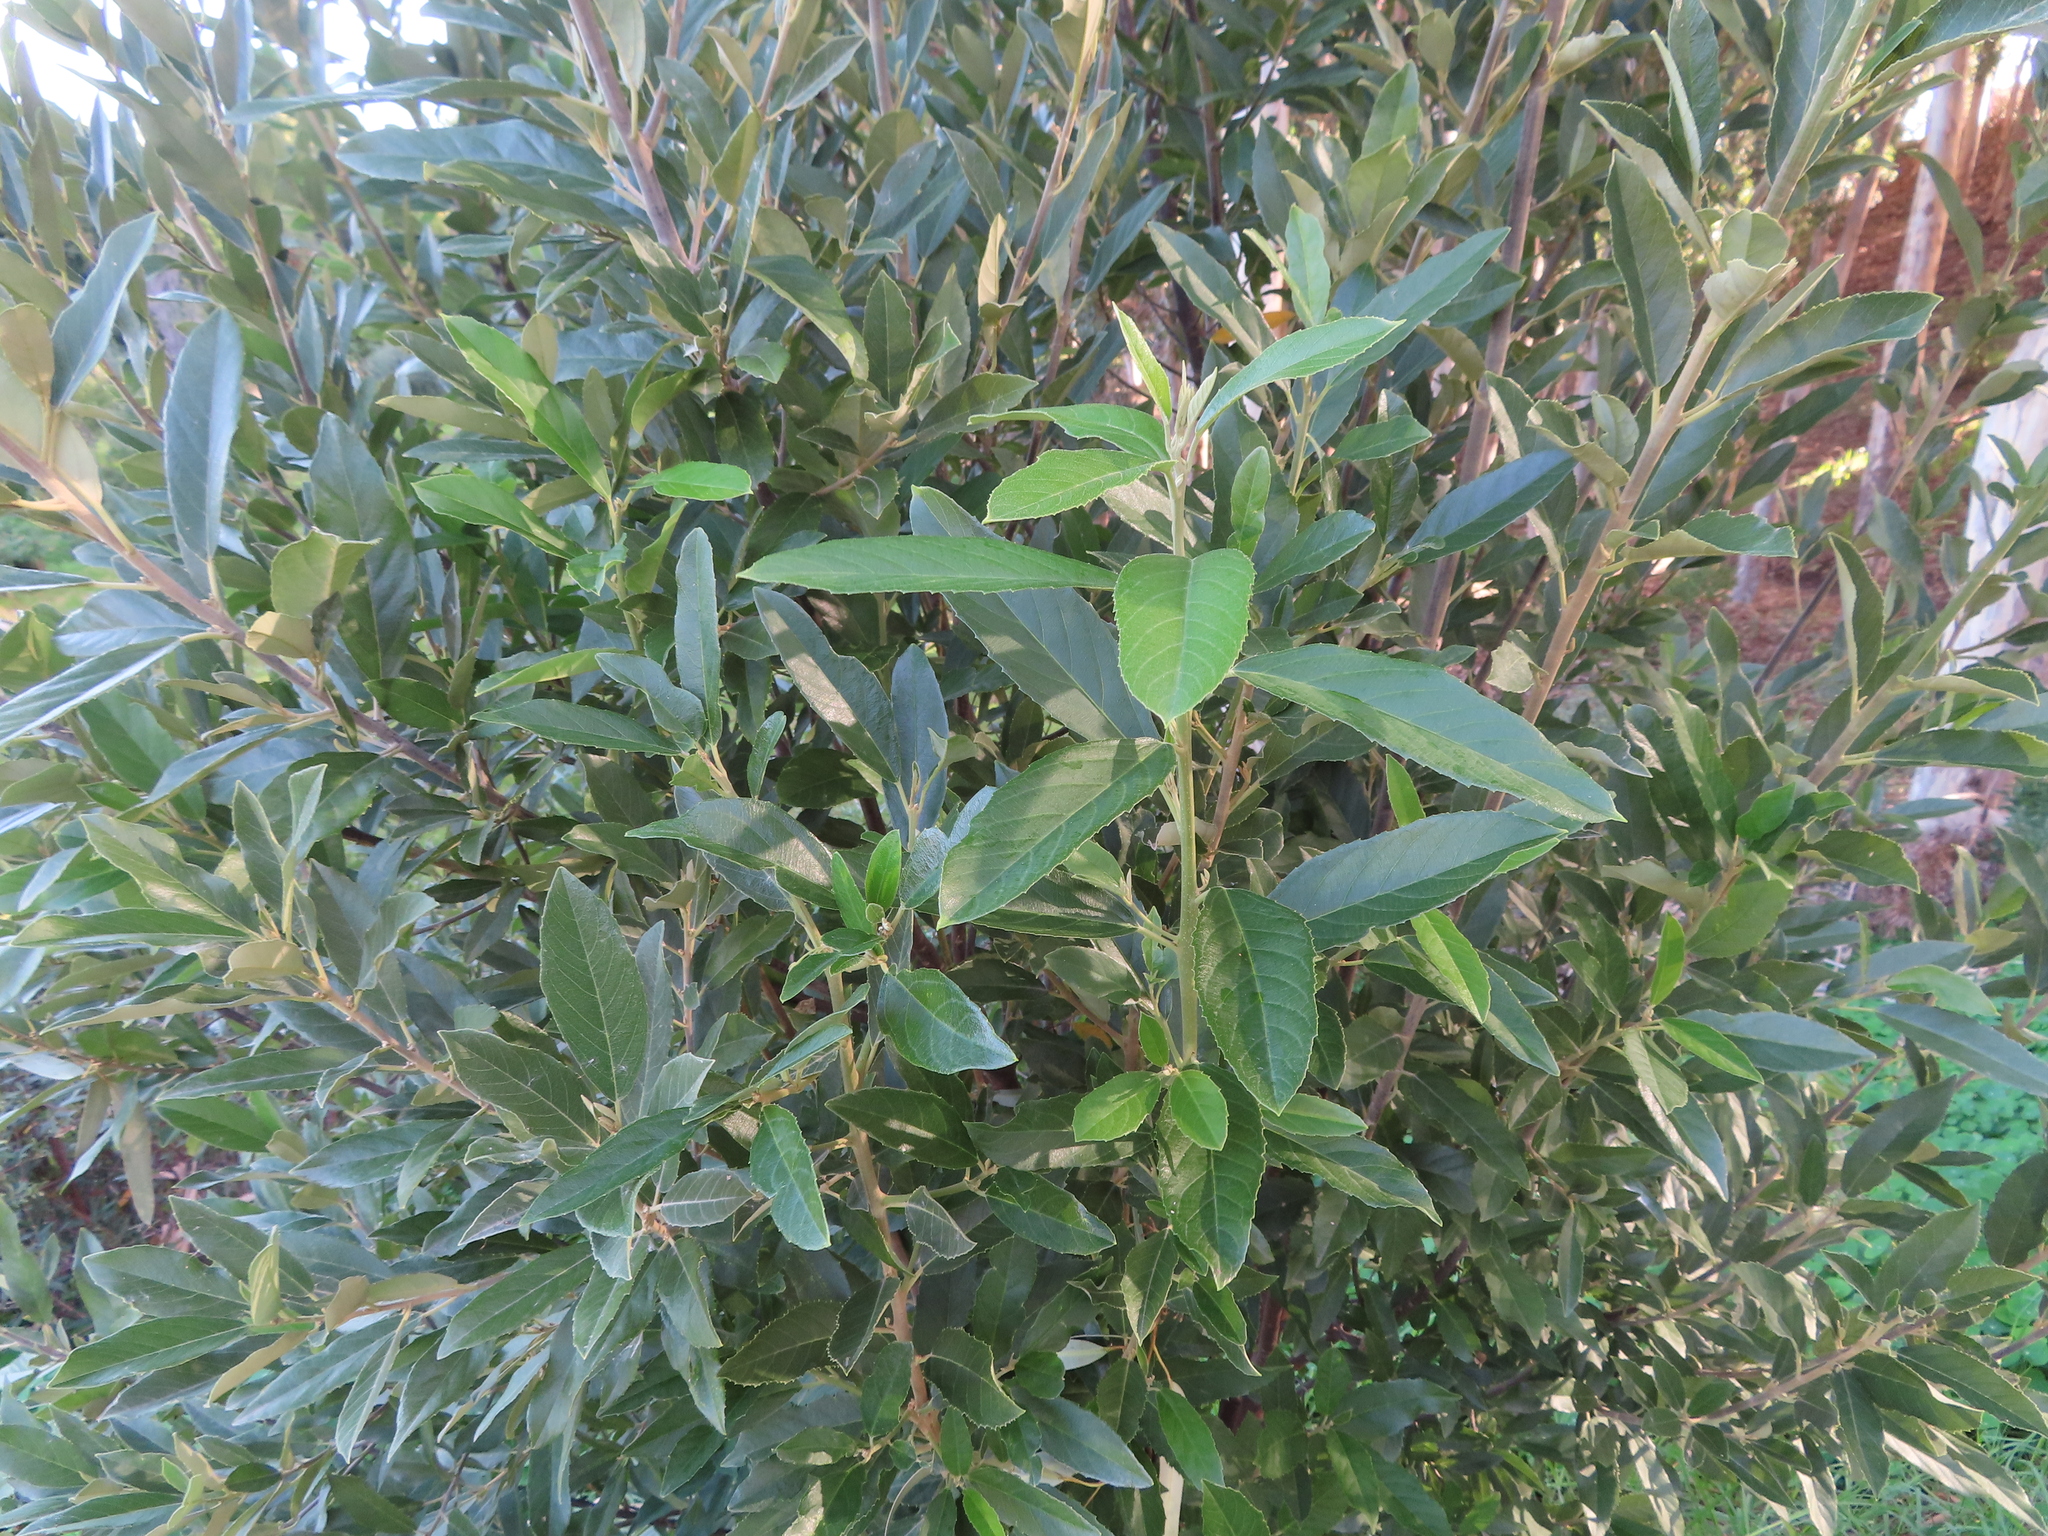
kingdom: Plantae
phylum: Tracheophyta
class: Magnoliopsida
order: Malpighiales
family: Achariaceae
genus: Kiggelaria
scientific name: Kiggelaria africana
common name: Wild peach
